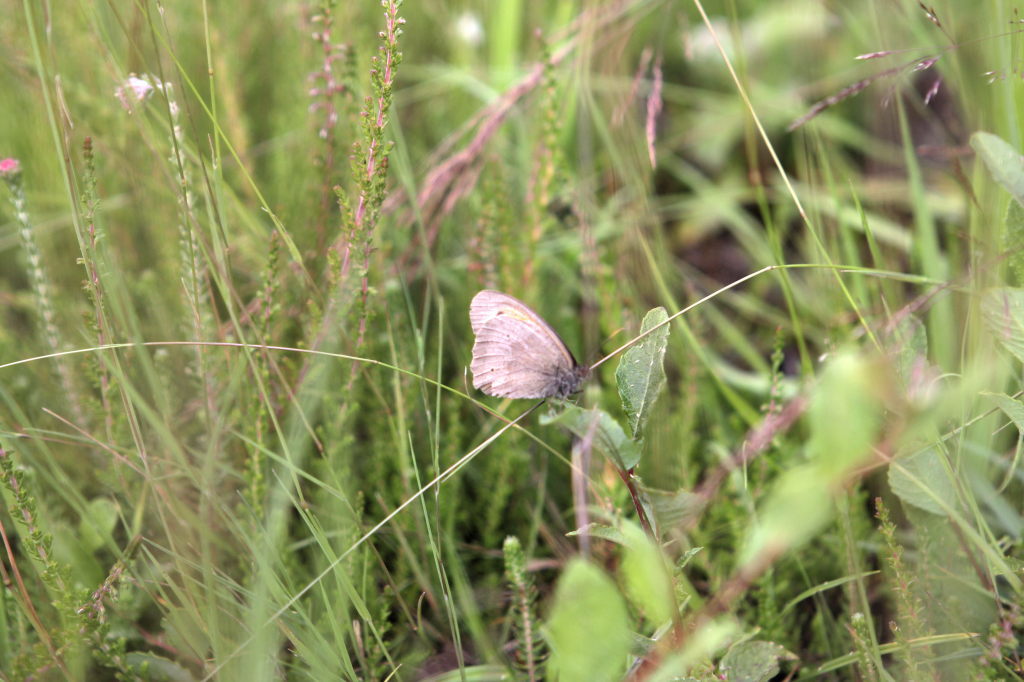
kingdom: Animalia
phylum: Arthropoda
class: Insecta
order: Lepidoptera
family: Nymphalidae
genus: Maniola
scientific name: Maniola jurtina
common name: Meadow brown
